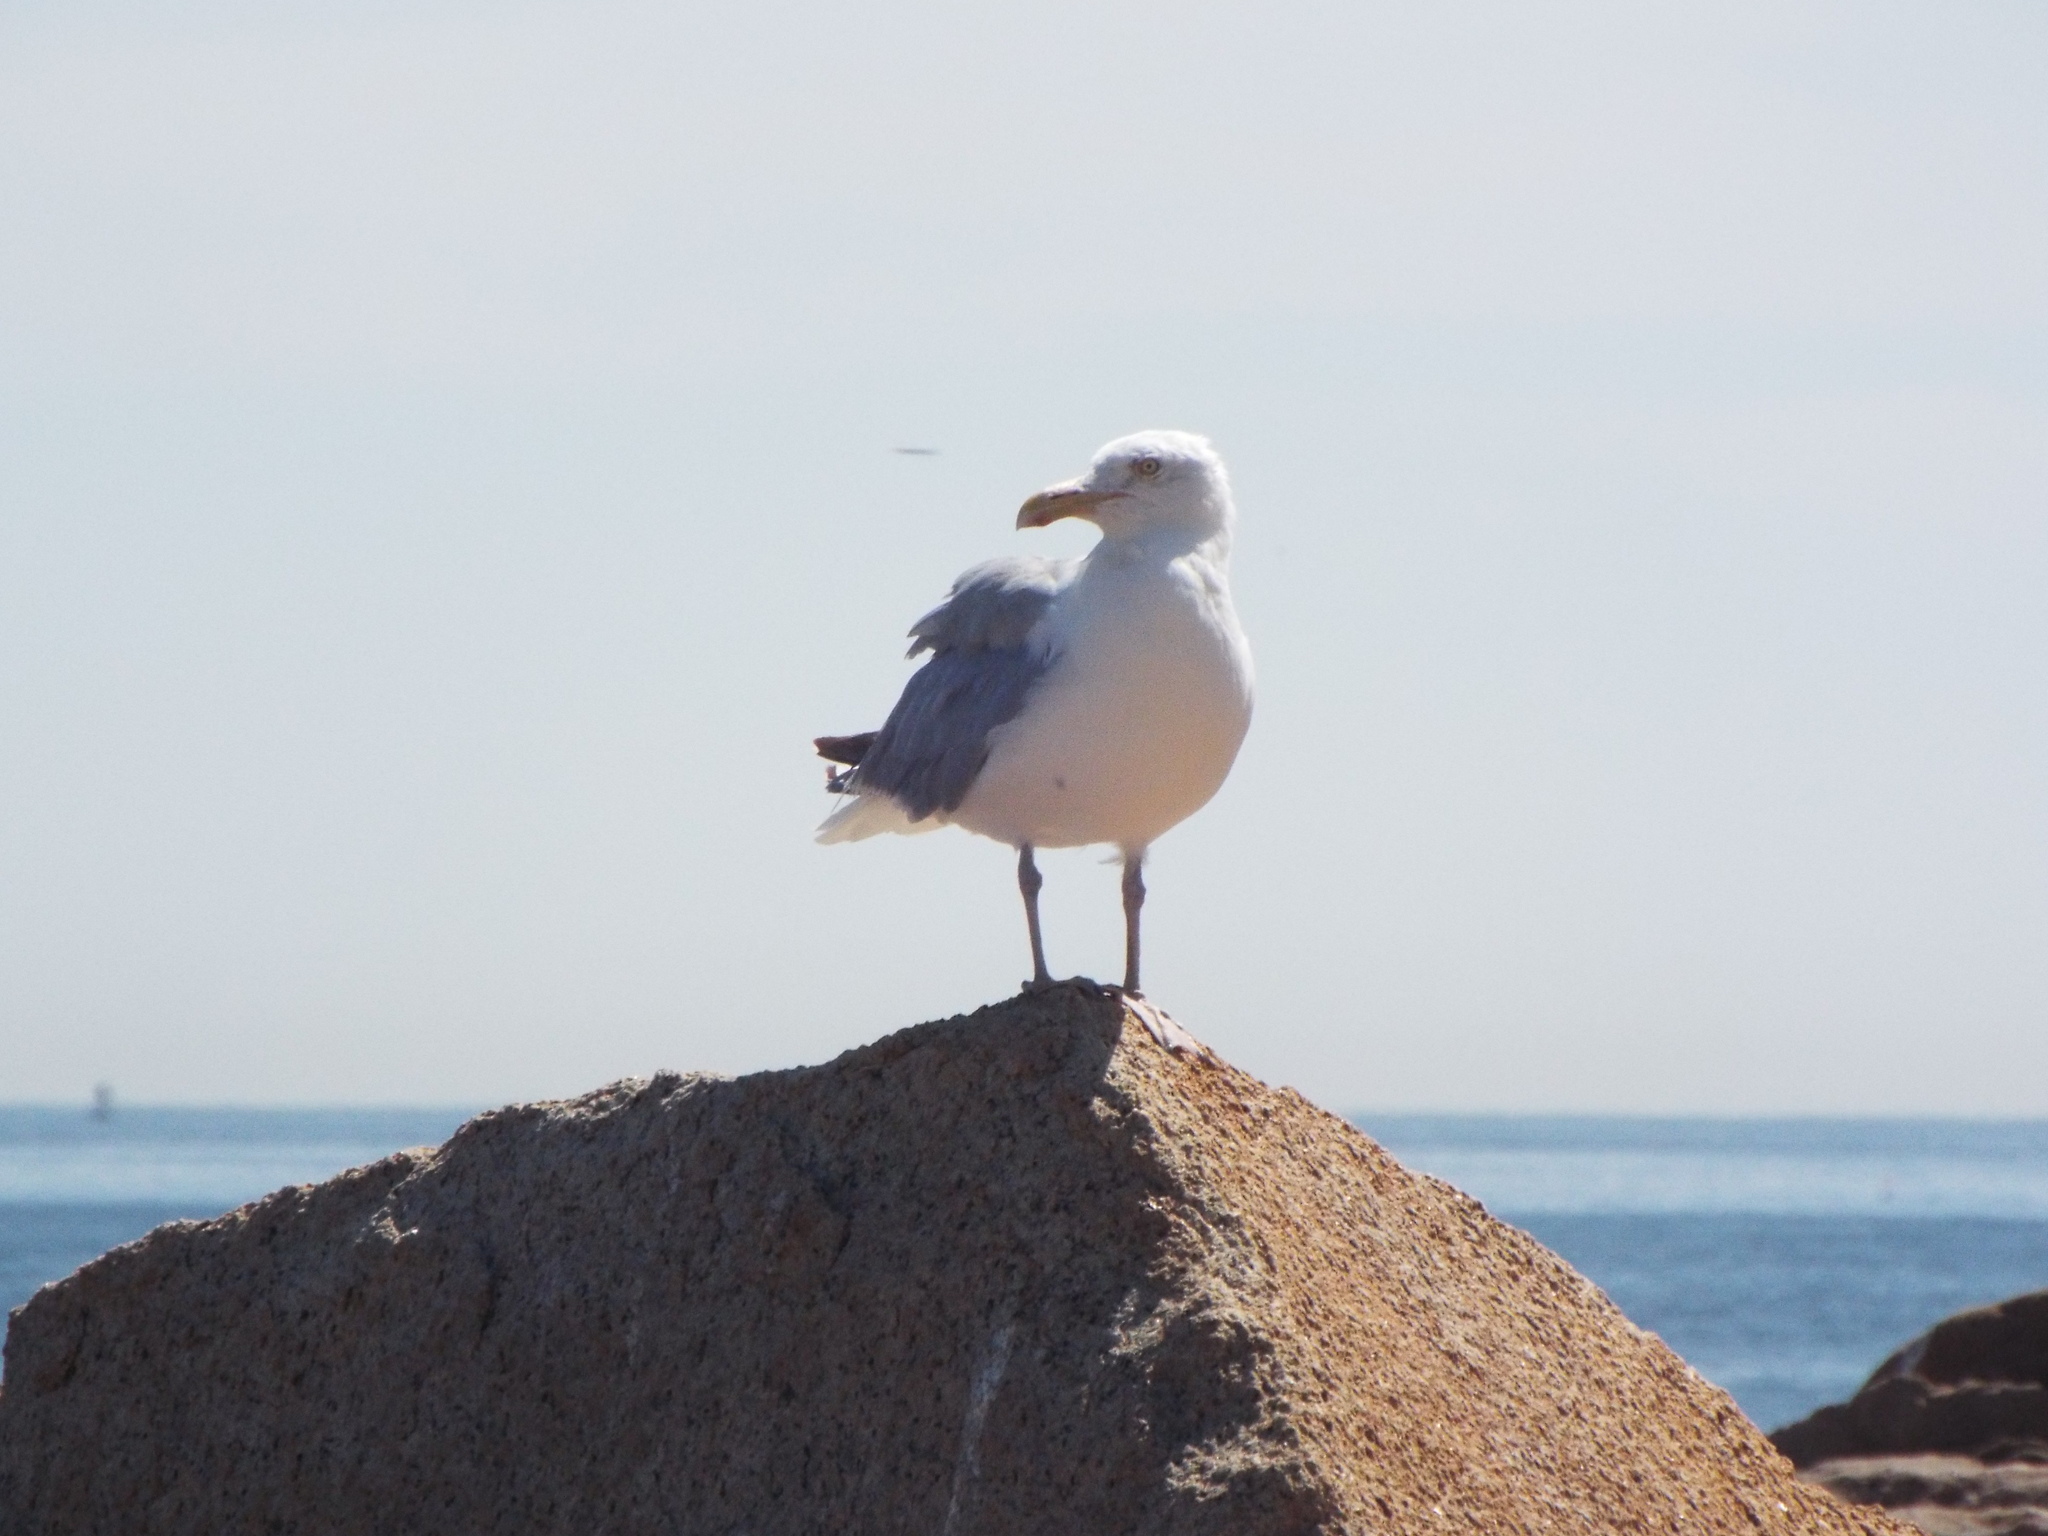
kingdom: Animalia
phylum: Chordata
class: Aves
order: Charadriiformes
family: Laridae
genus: Larus
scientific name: Larus argentatus
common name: Herring gull
